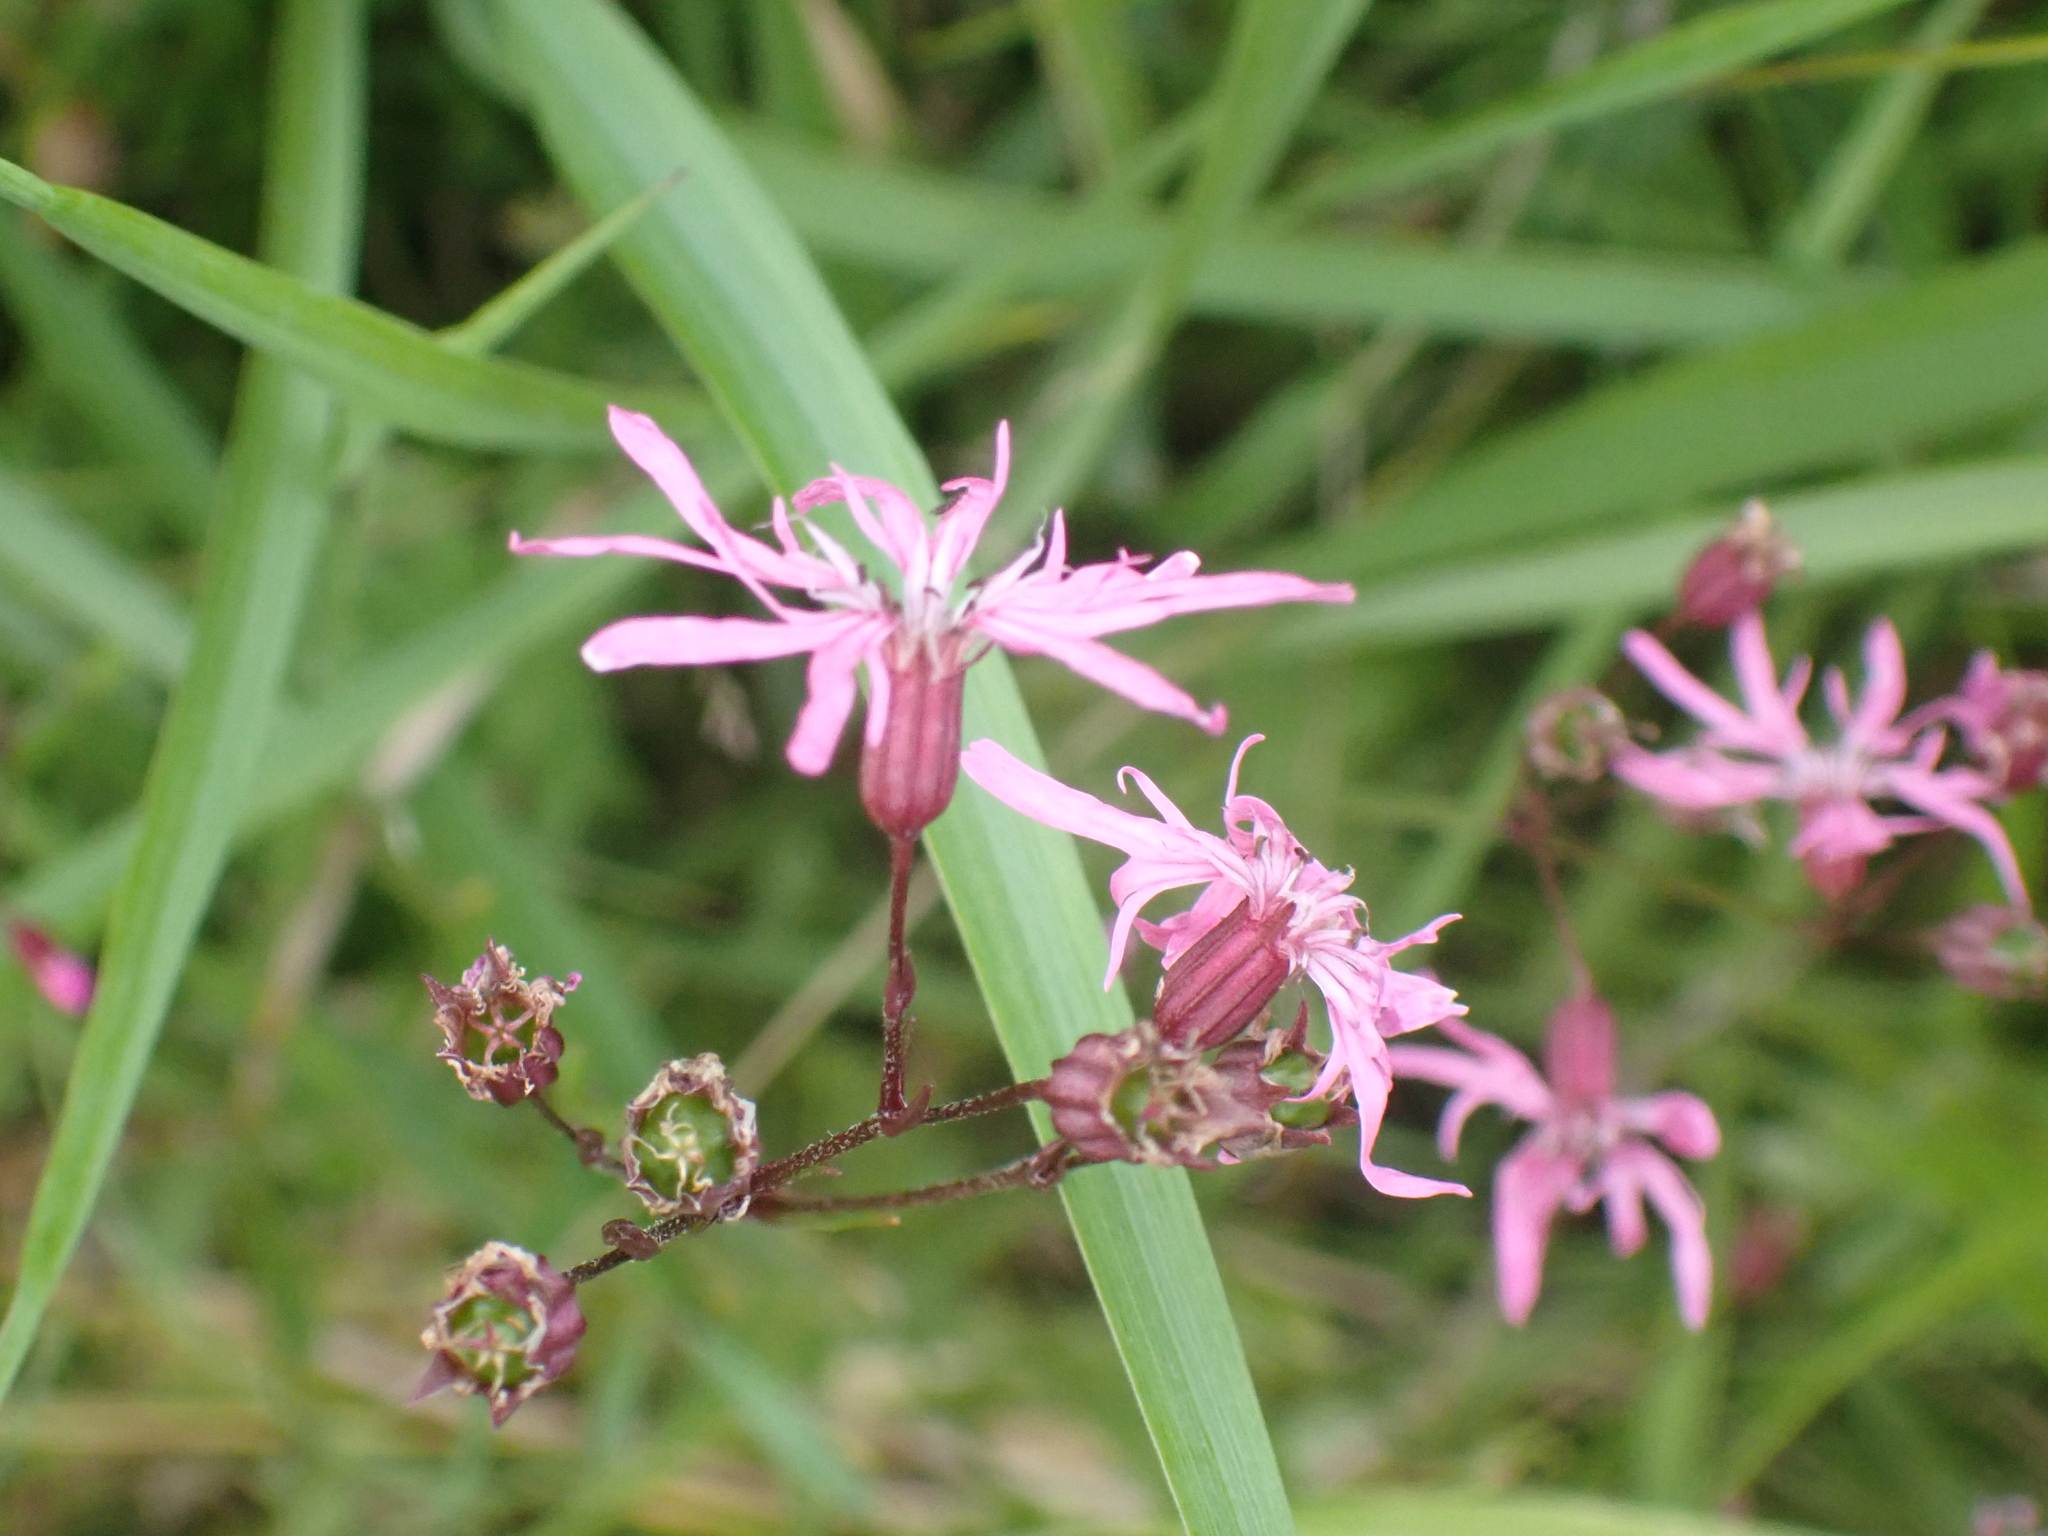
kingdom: Plantae
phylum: Tracheophyta
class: Magnoliopsida
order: Caryophyllales
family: Caryophyllaceae
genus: Silene
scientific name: Silene flos-cuculi
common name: Ragged-robin
